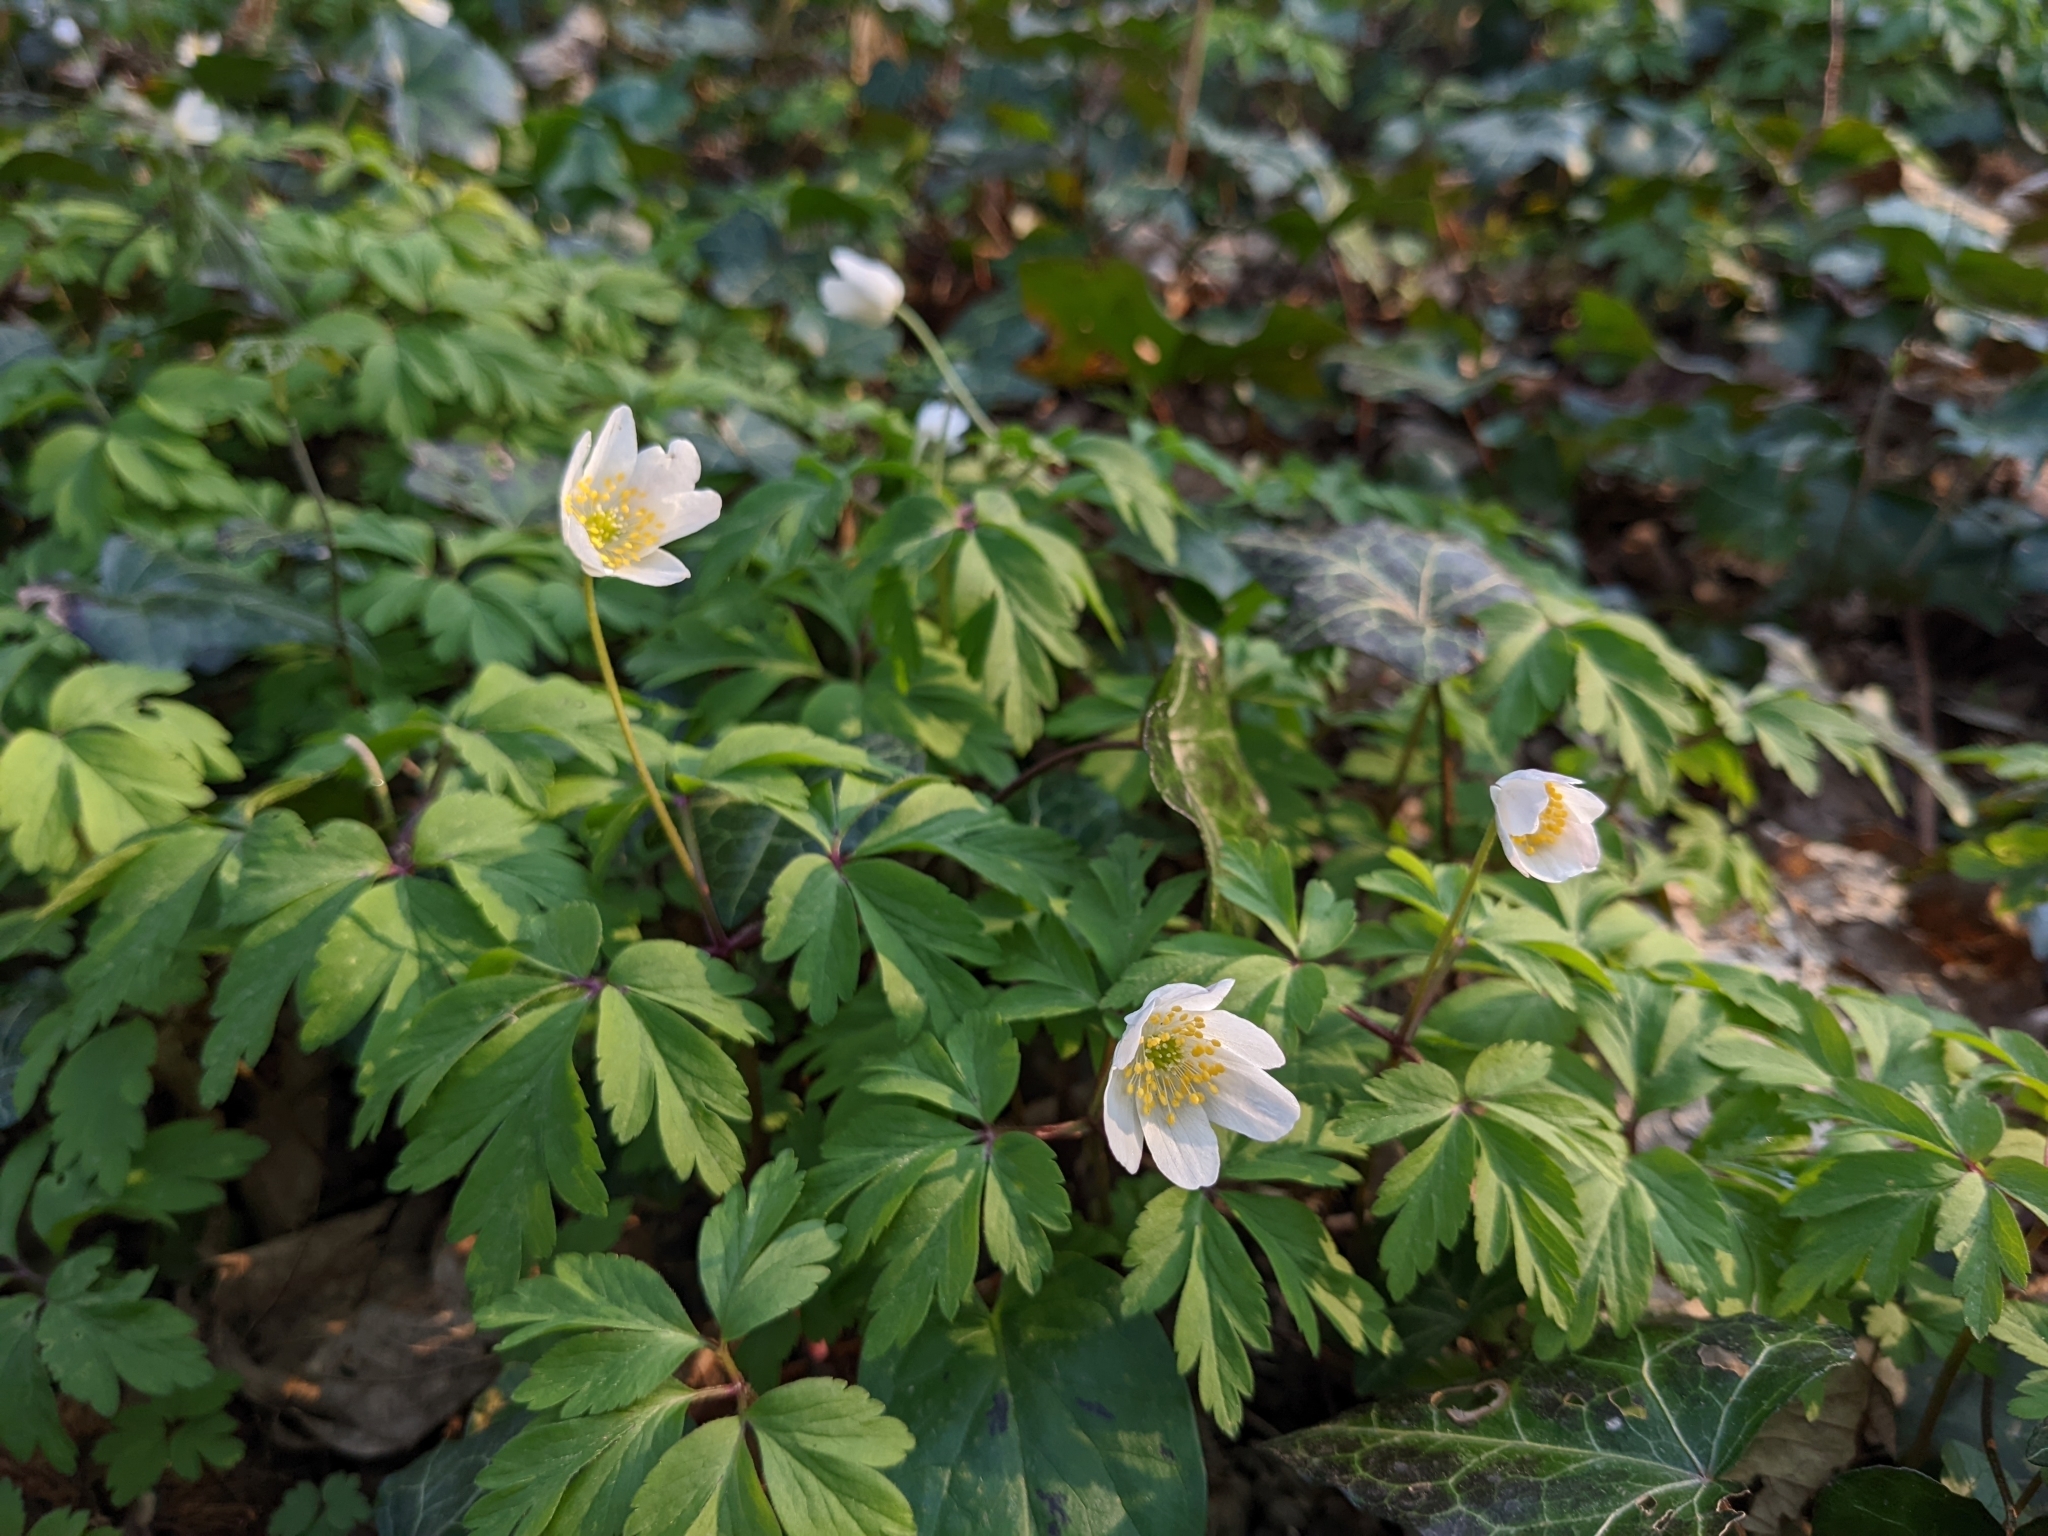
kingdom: Plantae
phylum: Tracheophyta
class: Magnoliopsida
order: Ranunculales
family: Ranunculaceae
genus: Anemone
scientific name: Anemone nemorosa
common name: Wood anemone
